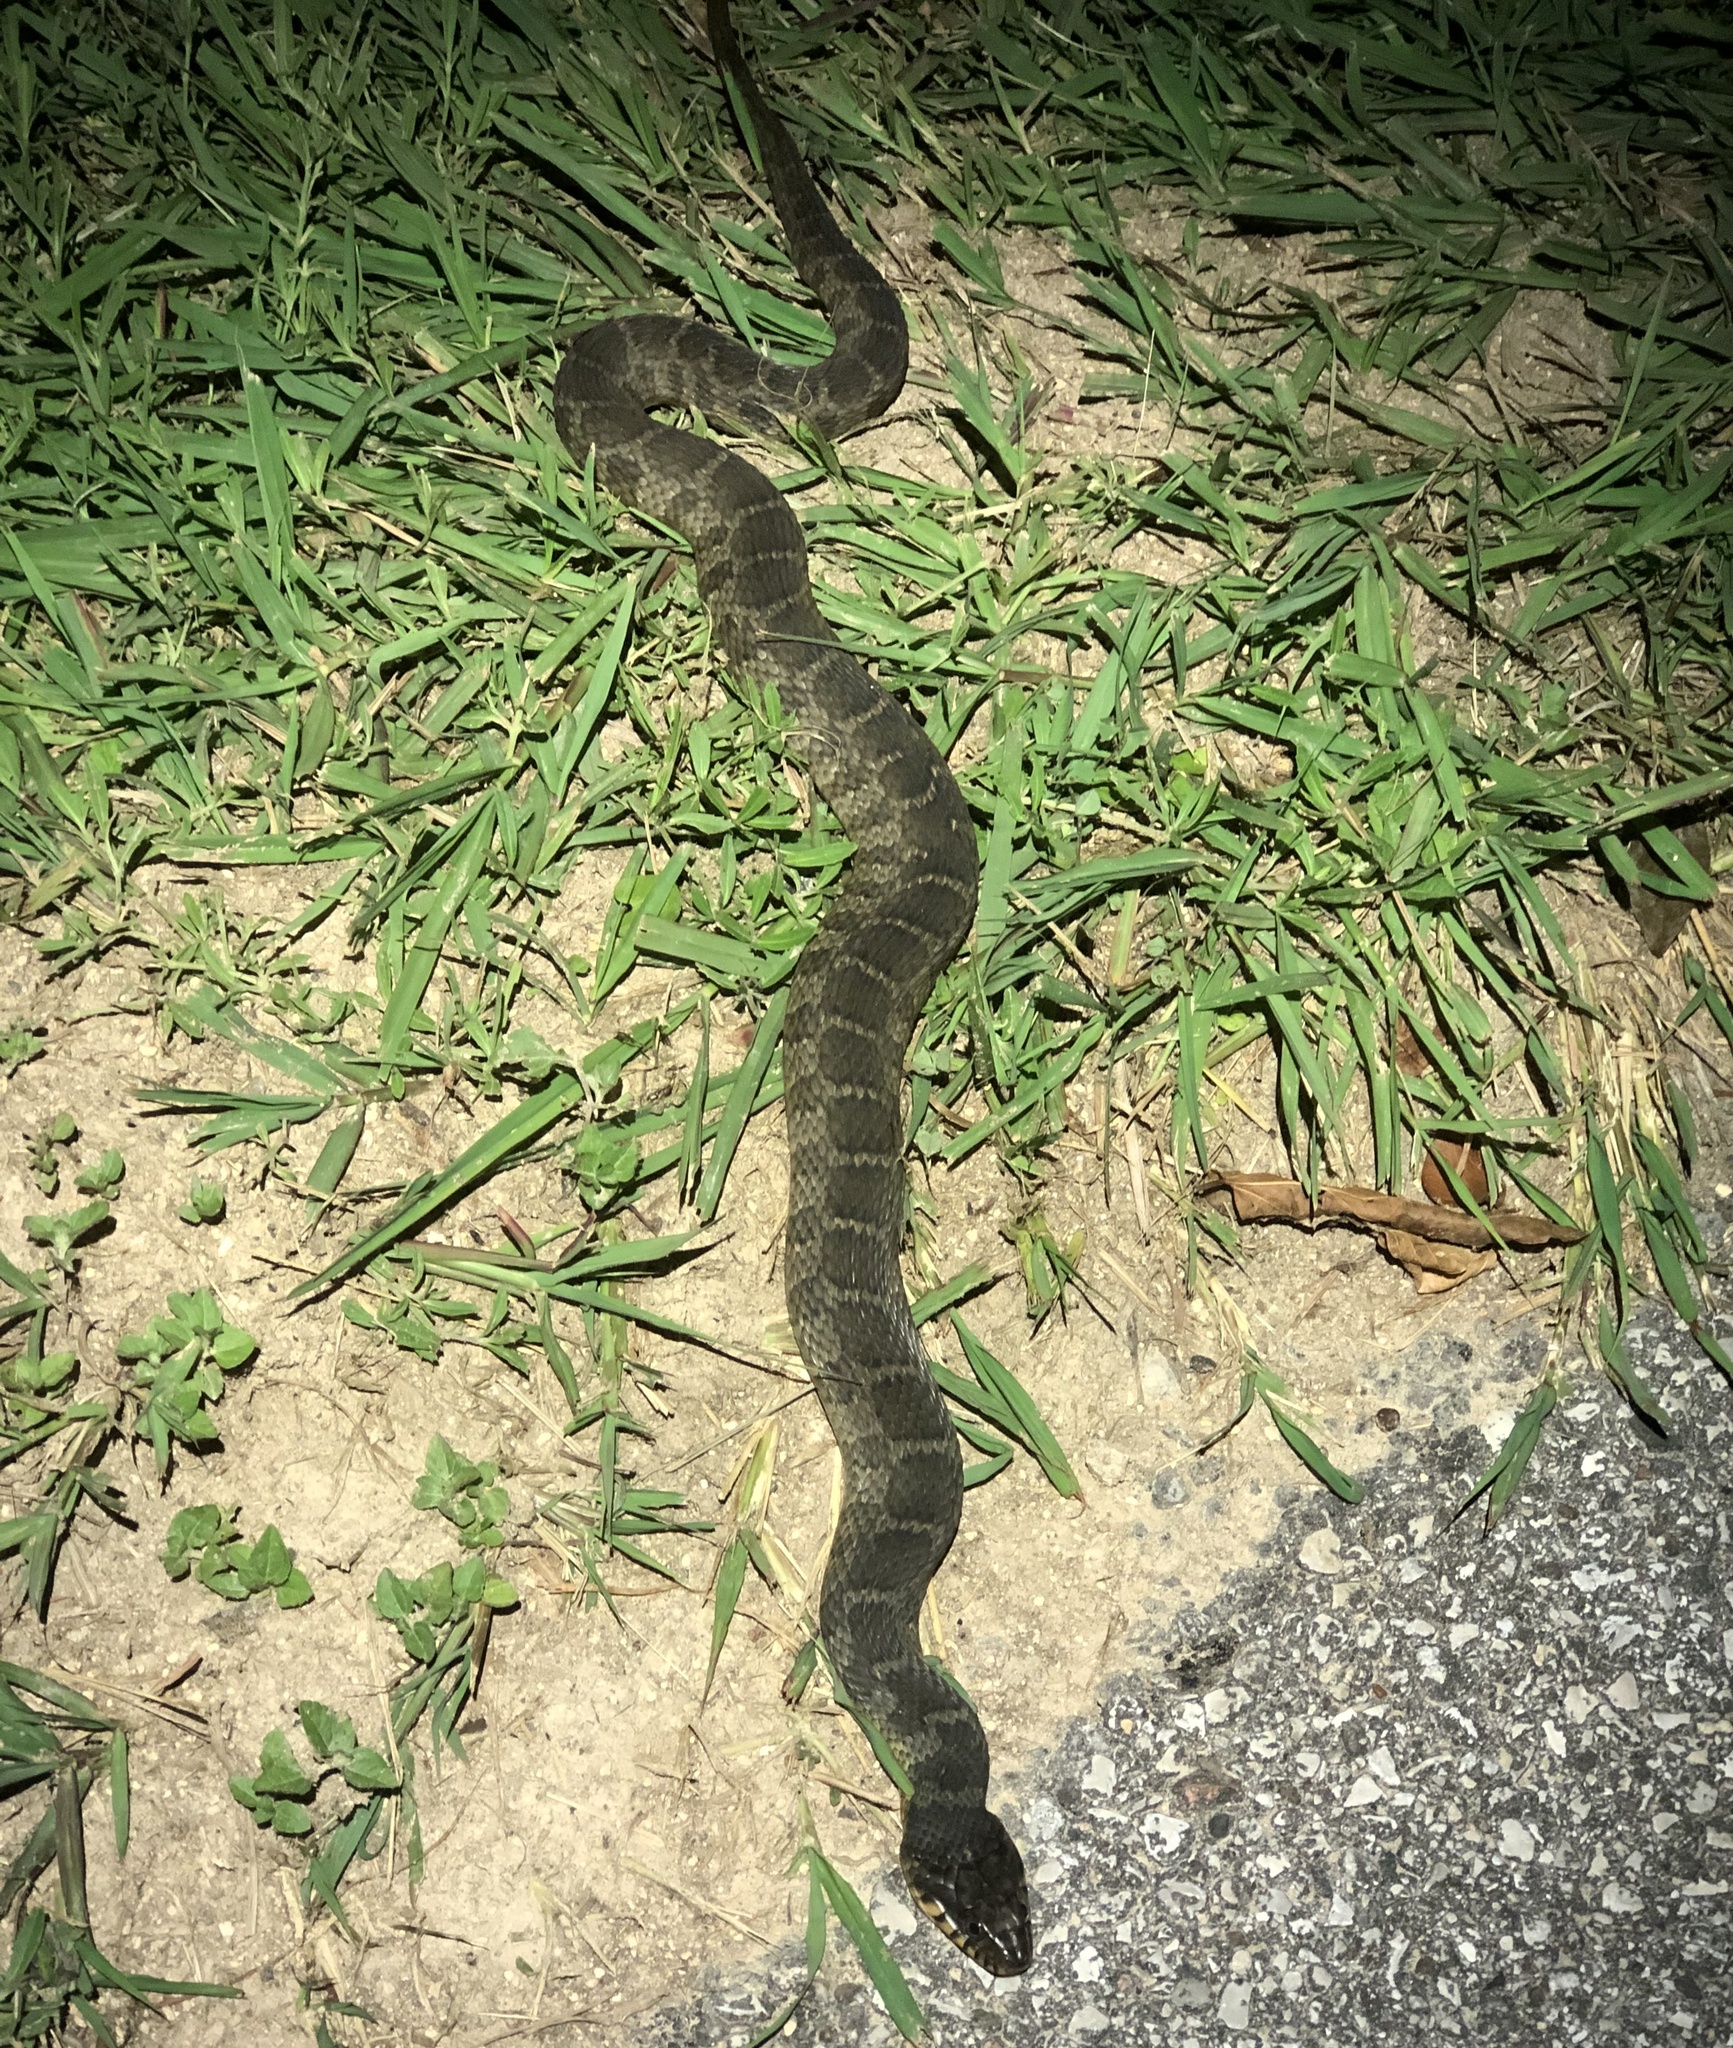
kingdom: Animalia
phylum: Chordata
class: Squamata
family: Colubridae
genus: Nerodia
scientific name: Nerodia erythrogaster
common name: Plainbelly water snake
